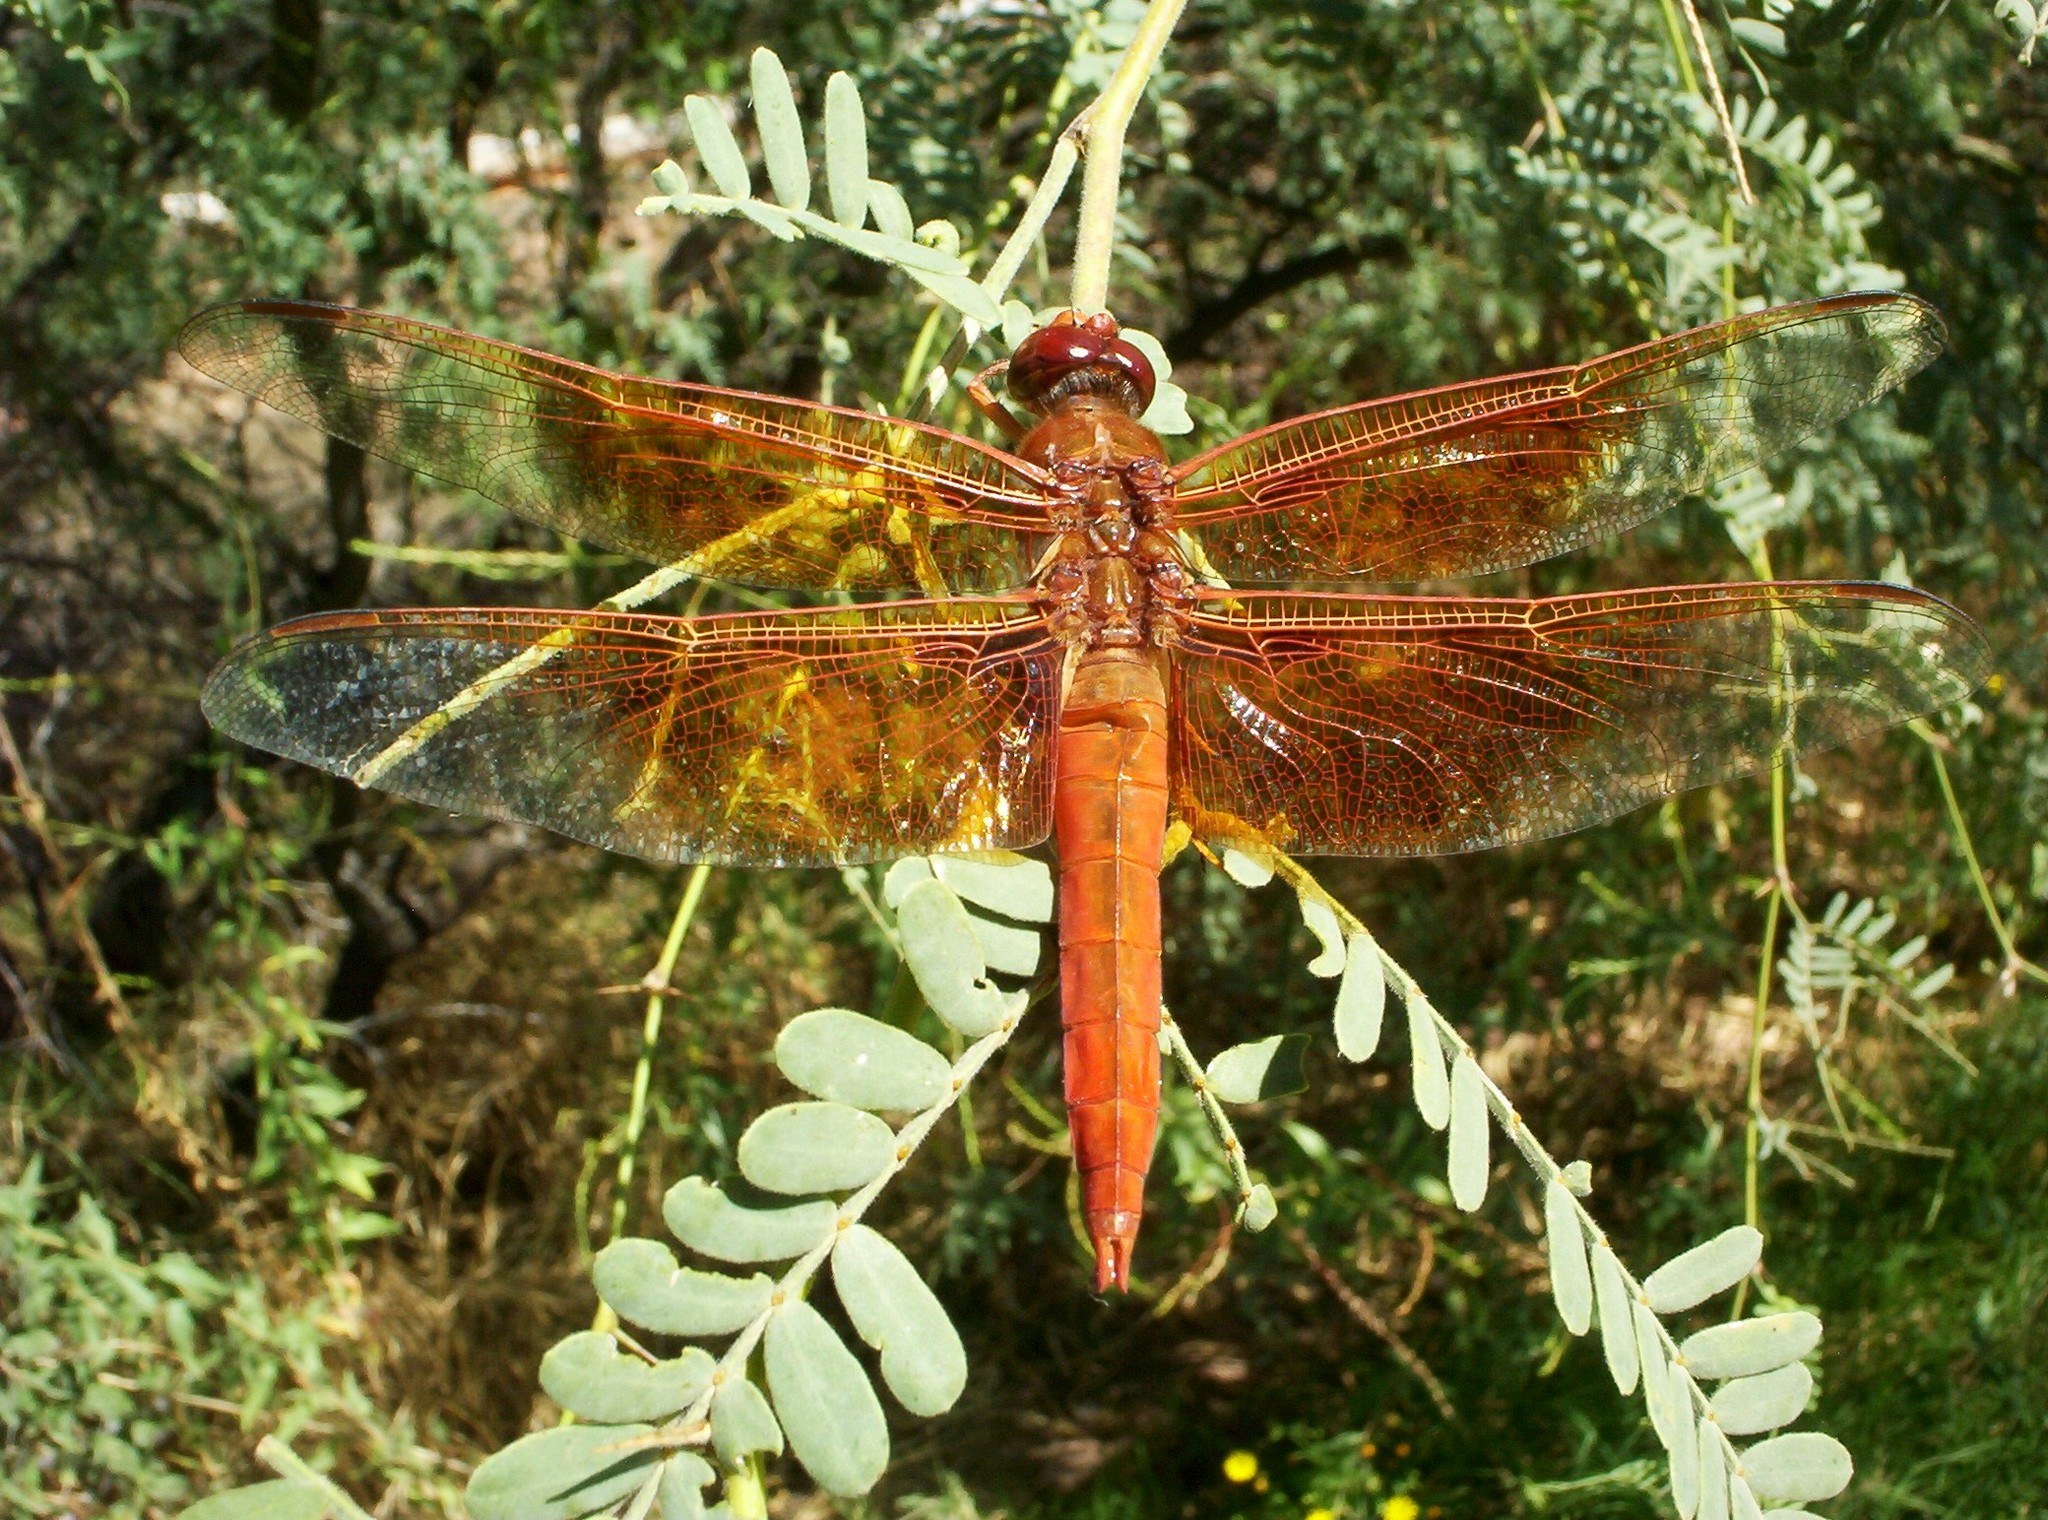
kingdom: Animalia
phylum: Arthropoda
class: Insecta
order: Odonata
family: Libellulidae
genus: Libellula
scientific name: Libellula saturata
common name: Flame skimmer
